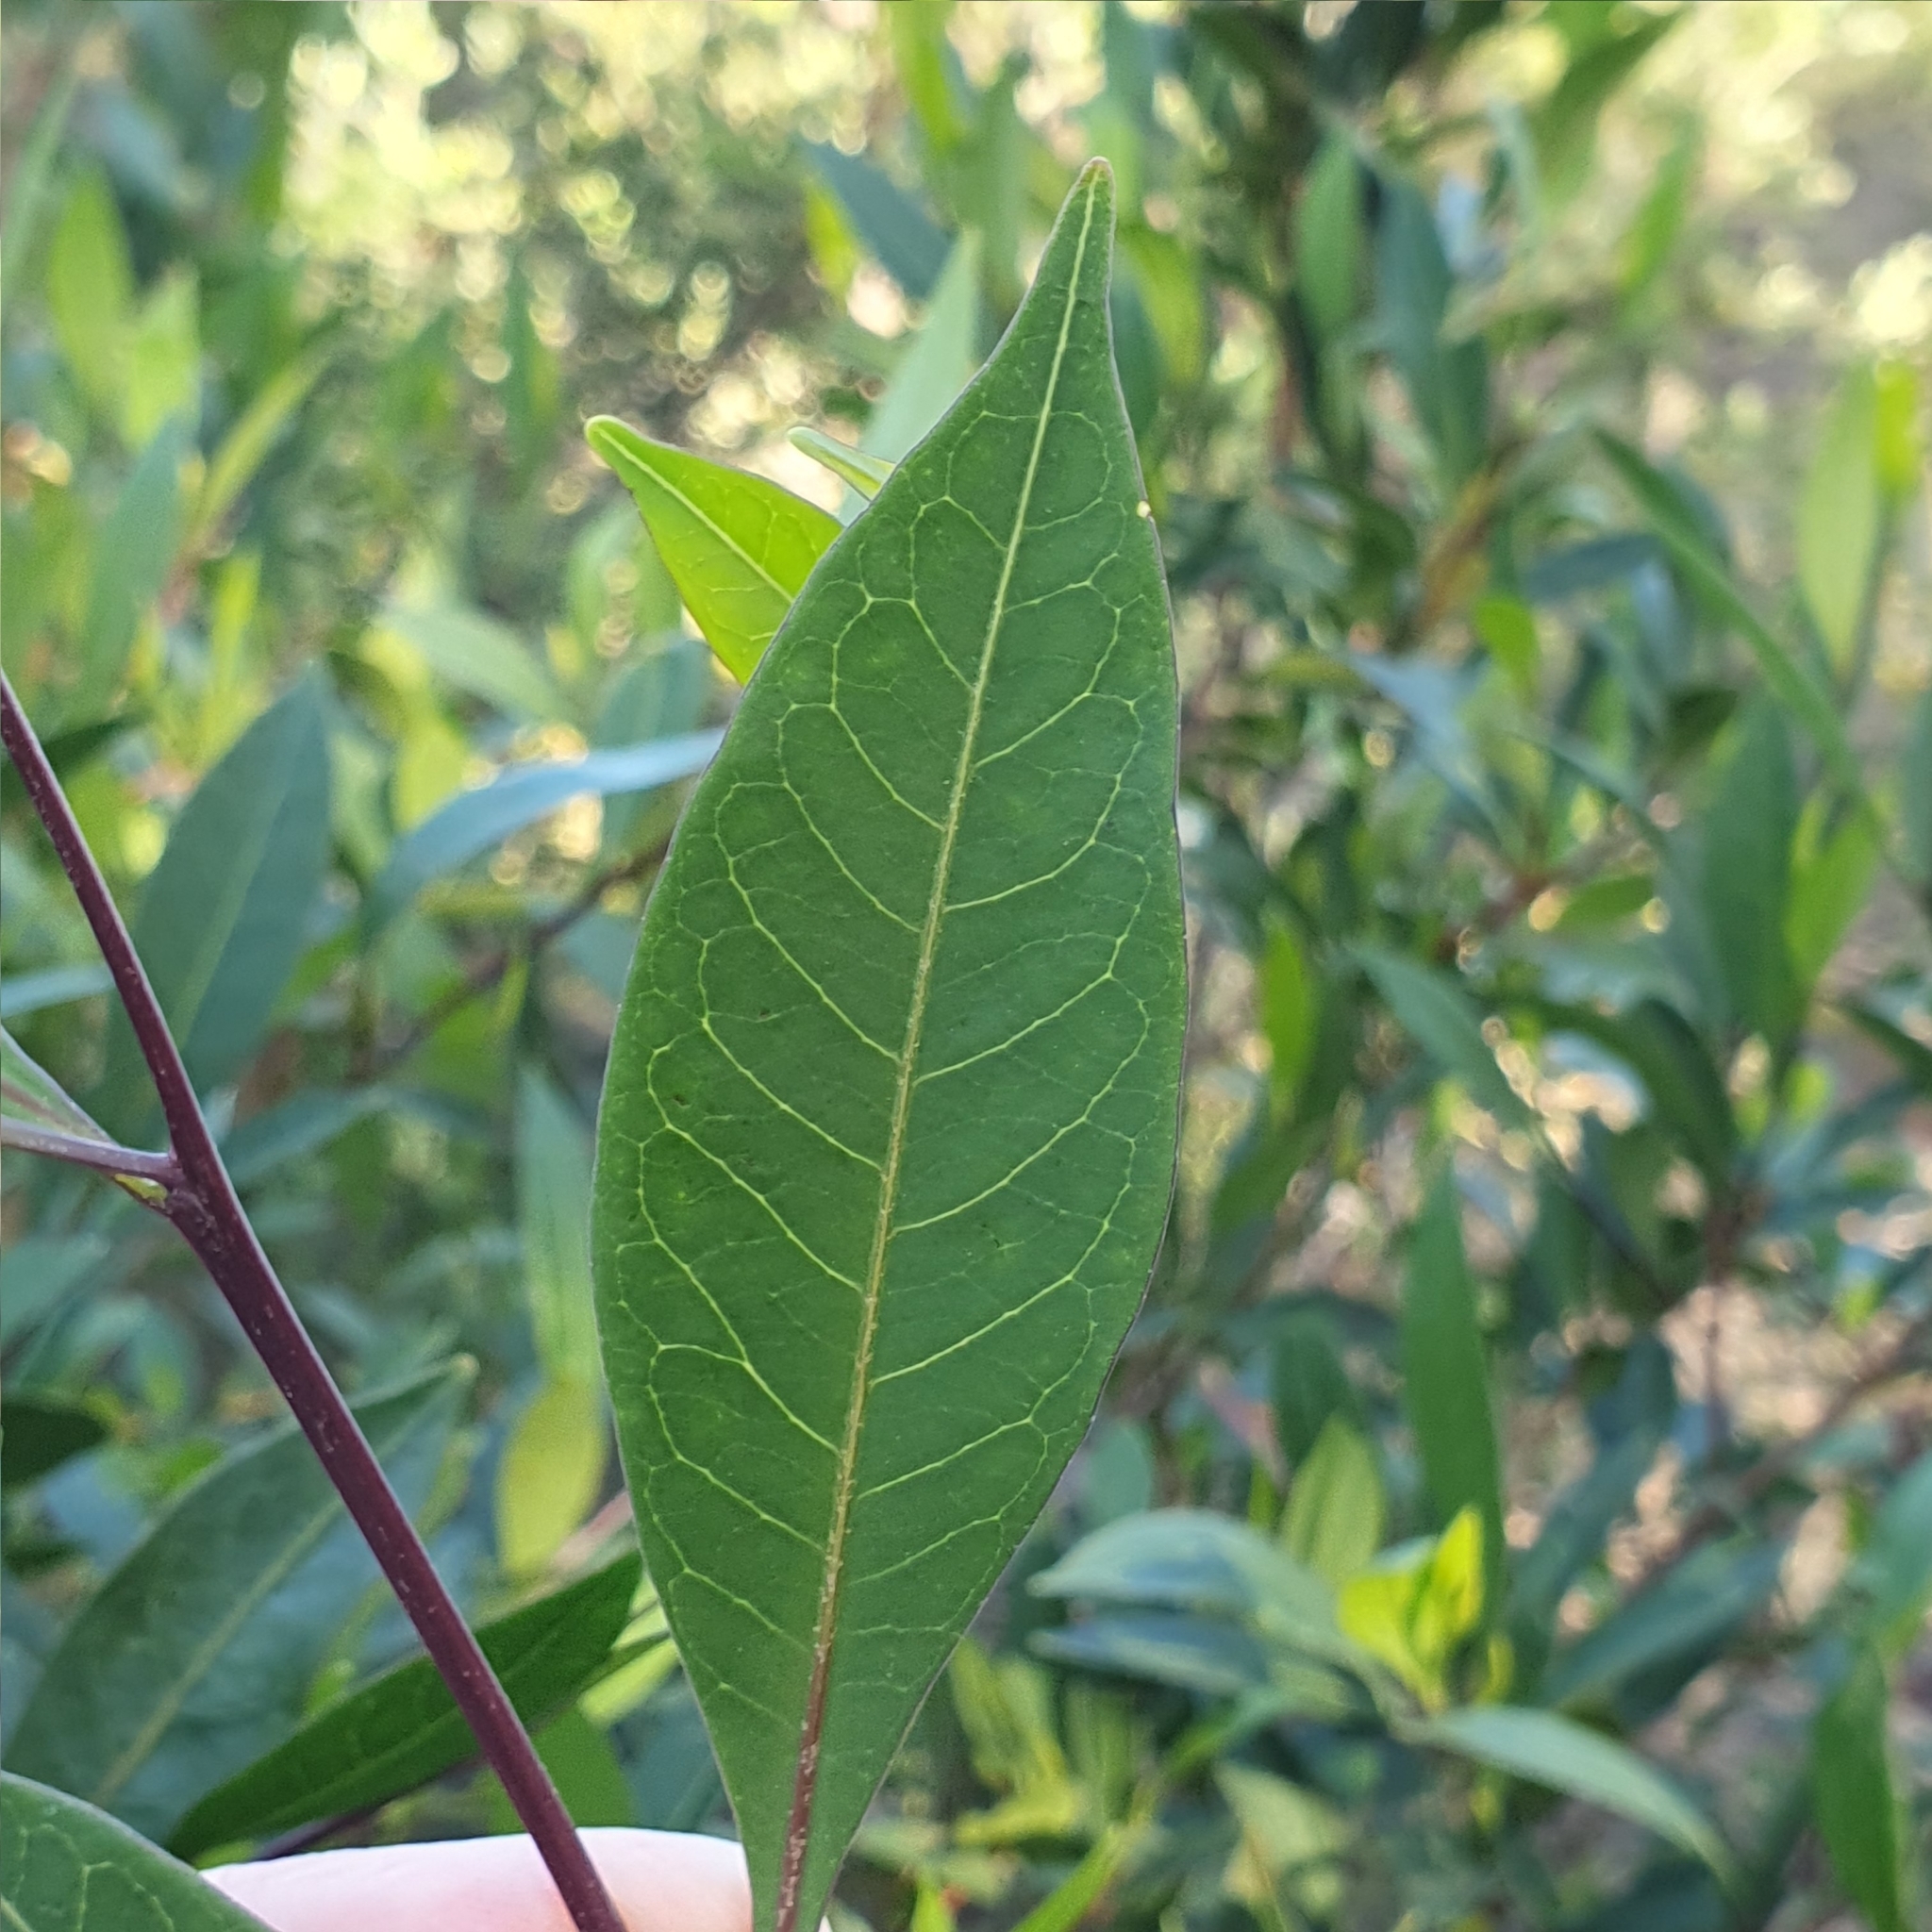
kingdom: Plantae
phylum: Tracheophyta
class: Magnoliopsida
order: Sapindales
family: Sapindaceae
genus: Dodonaea
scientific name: Dodonaea triquetra
